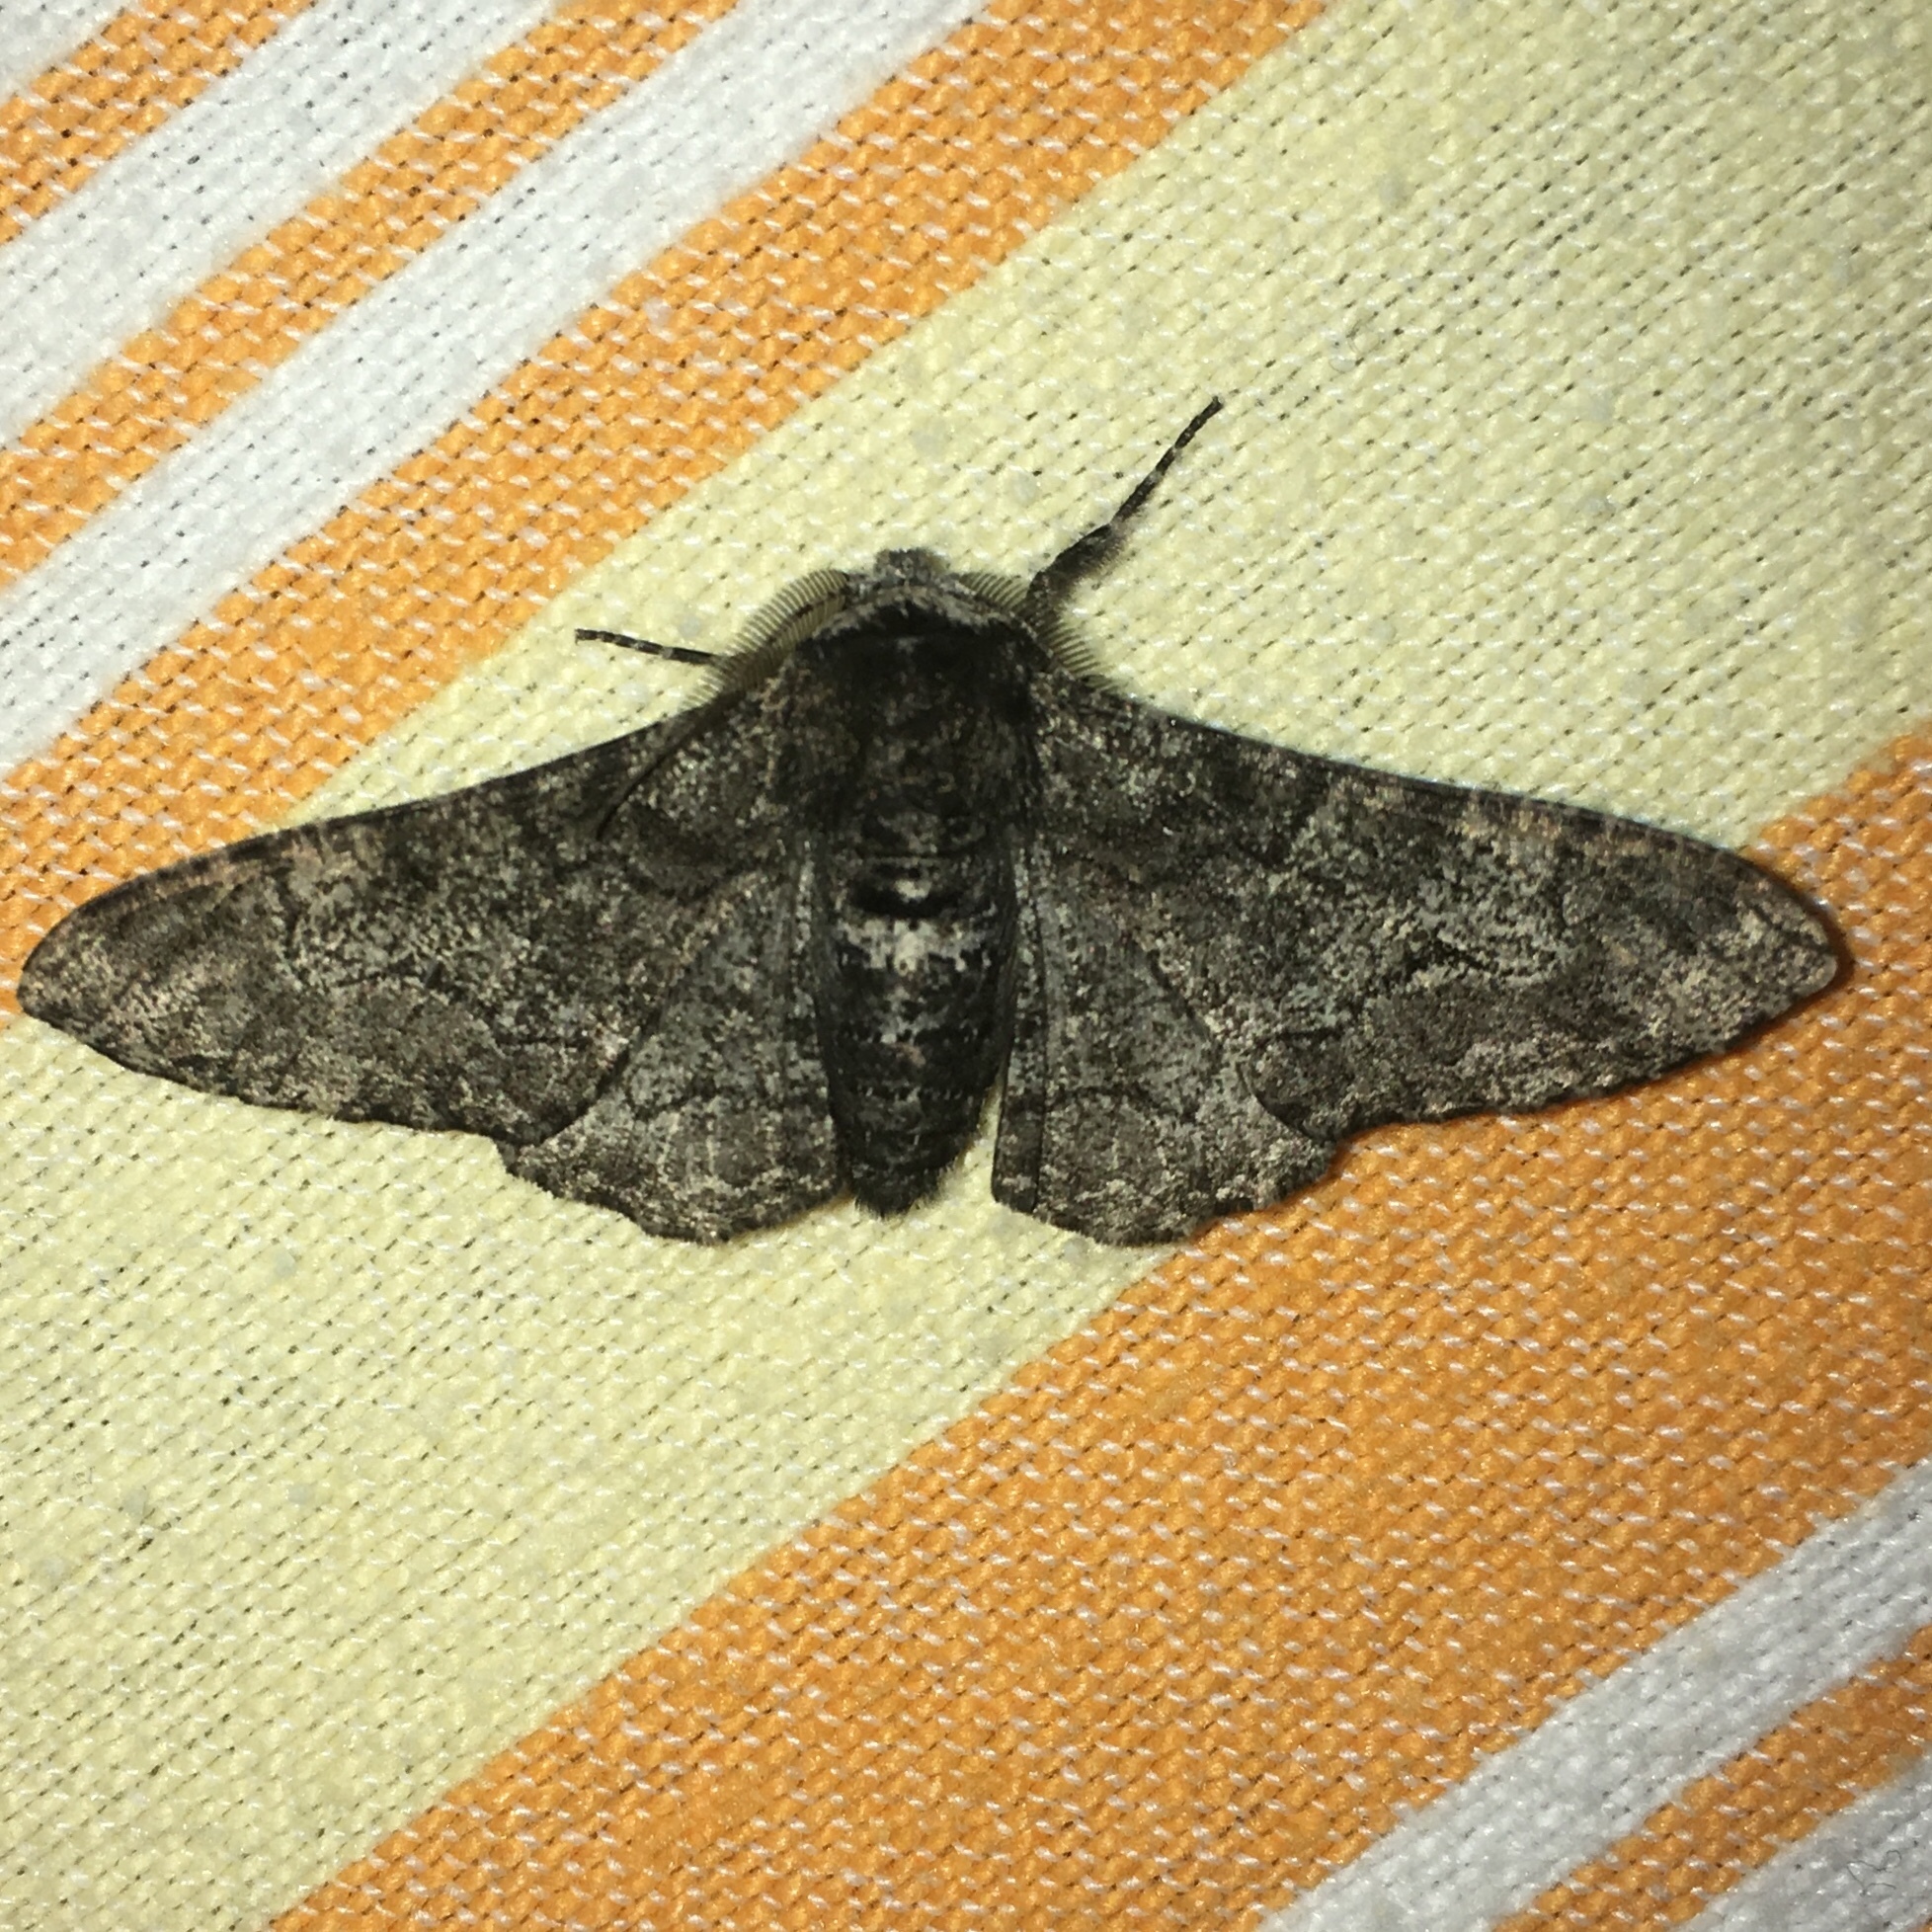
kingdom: Animalia
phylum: Arthropoda
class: Insecta
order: Lepidoptera
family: Geometridae
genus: Biston
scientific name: Biston betularia
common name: Peppered moth
